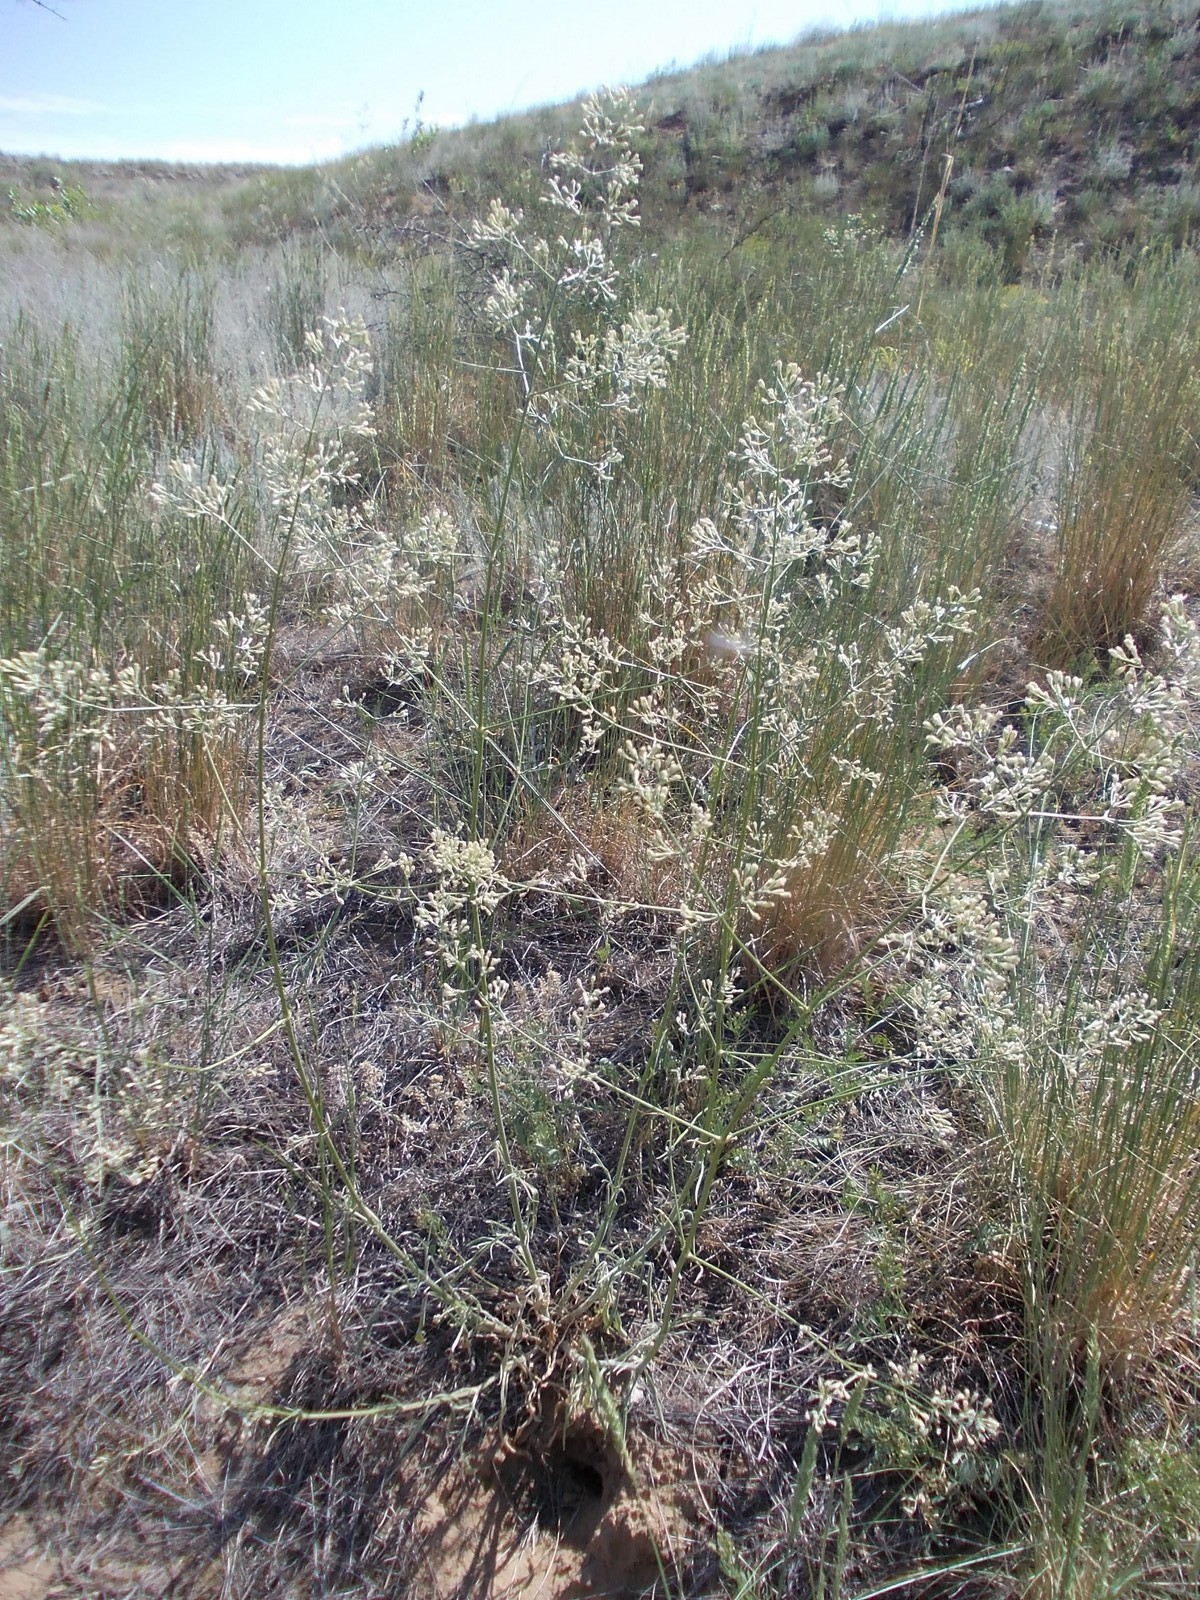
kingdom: Plantae
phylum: Tracheophyta
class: Magnoliopsida
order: Caryophyllales
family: Caryophyllaceae
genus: Silene
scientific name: Silene wolgensis
